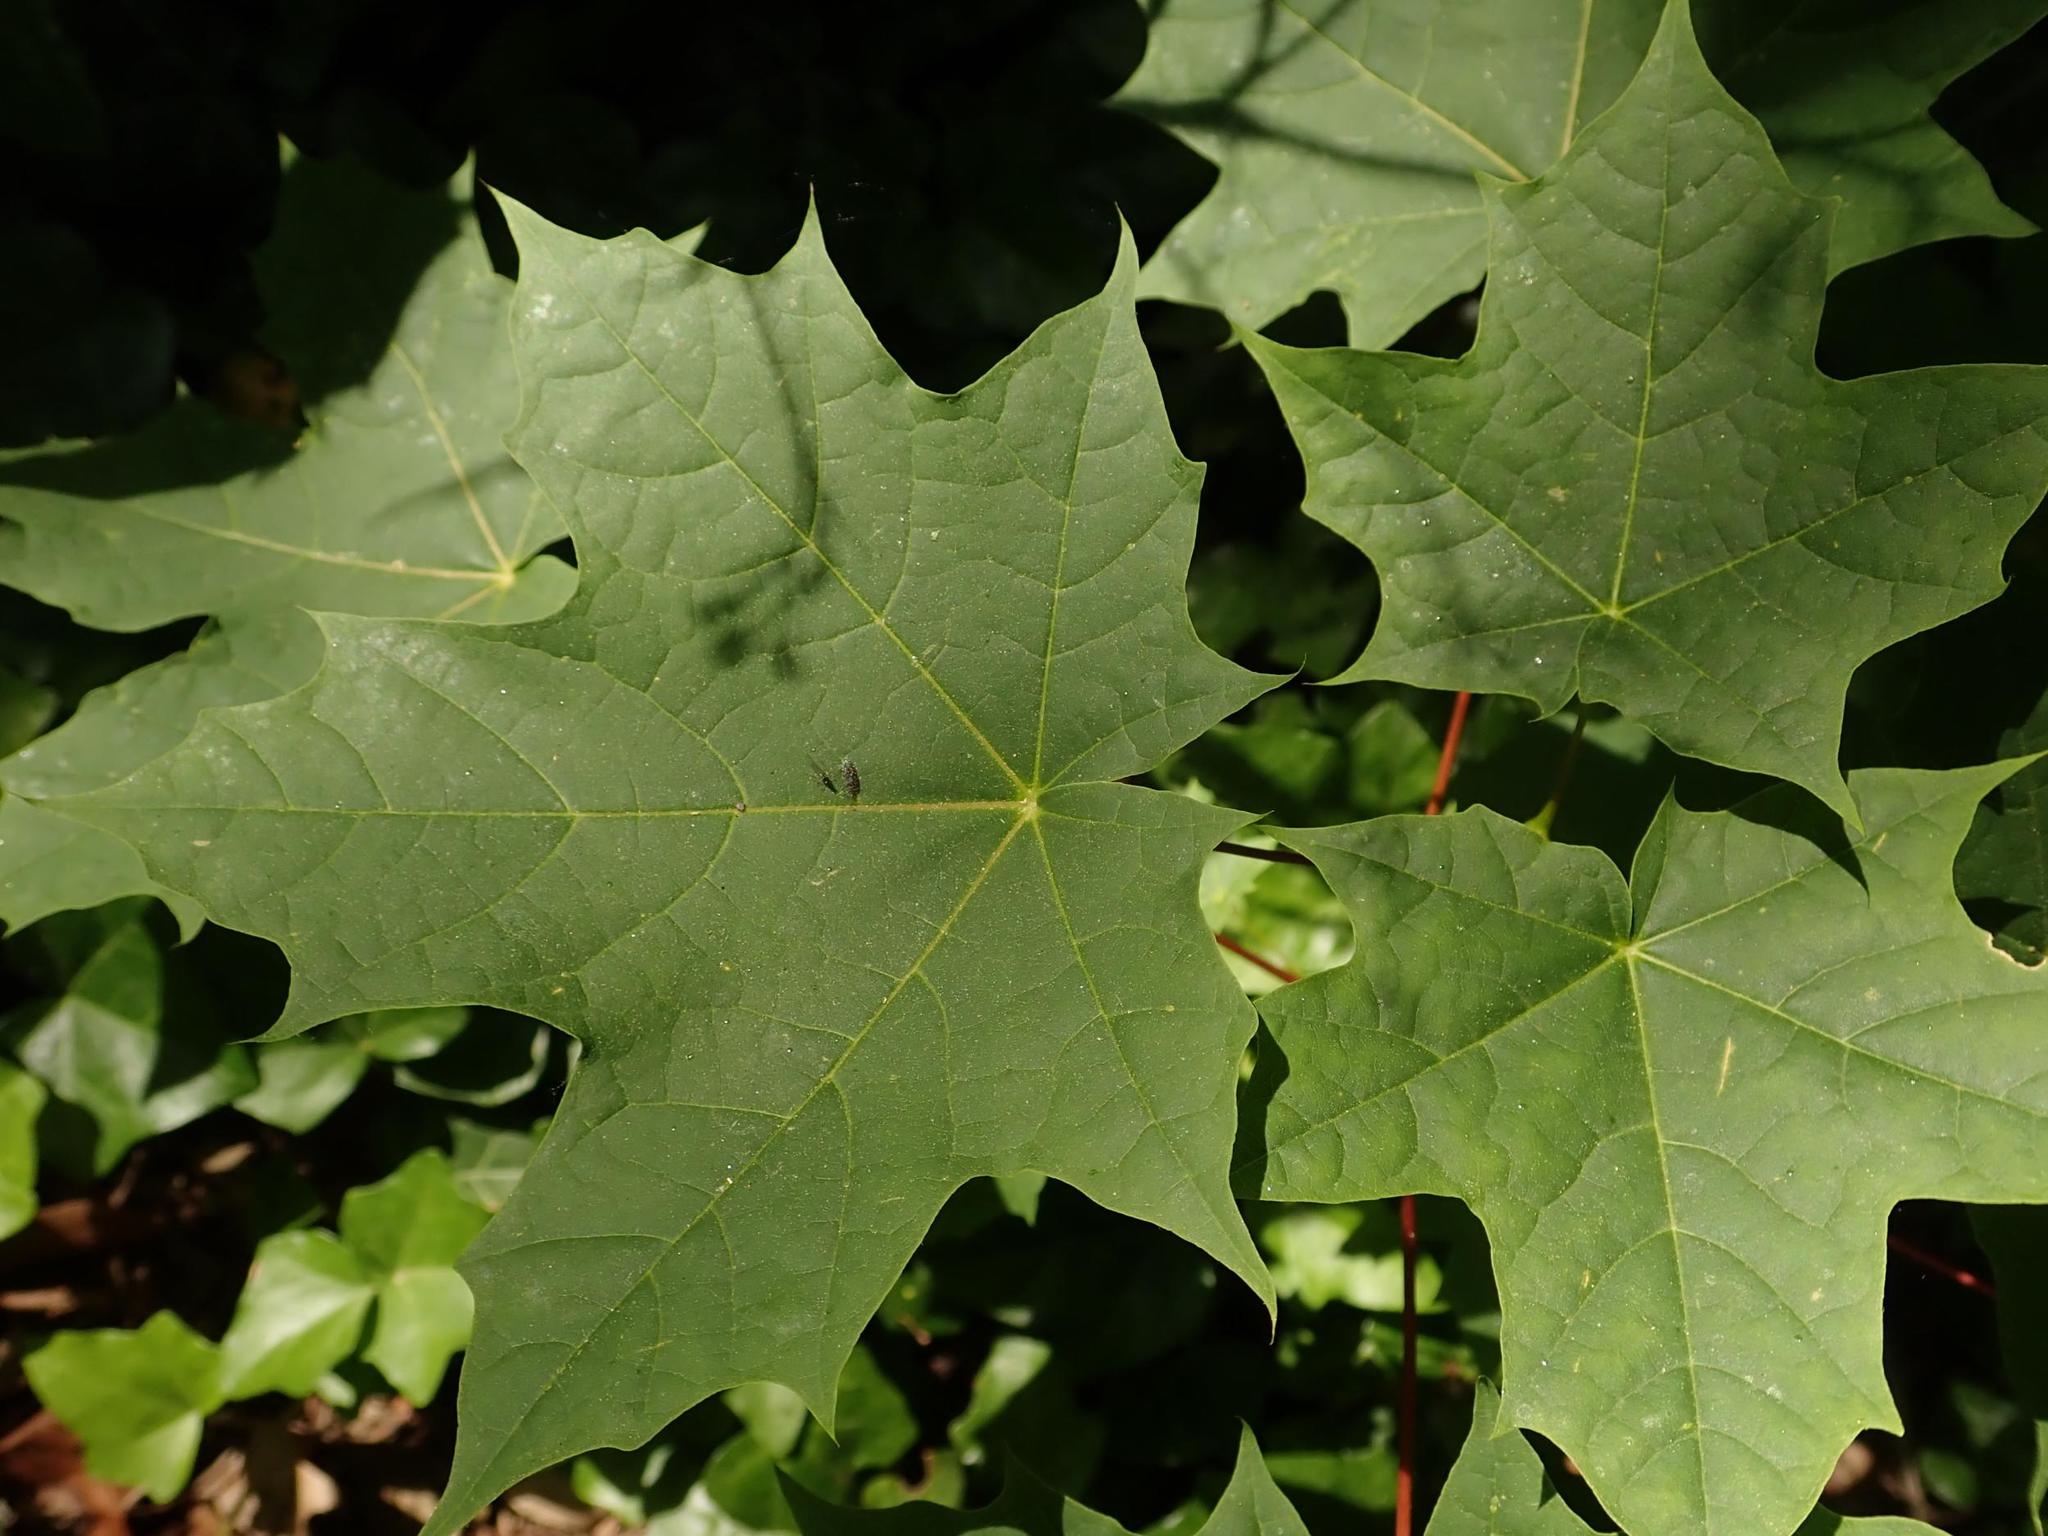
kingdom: Plantae
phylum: Tracheophyta
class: Magnoliopsida
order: Sapindales
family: Sapindaceae
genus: Acer
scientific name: Acer platanoides
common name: Norway maple
